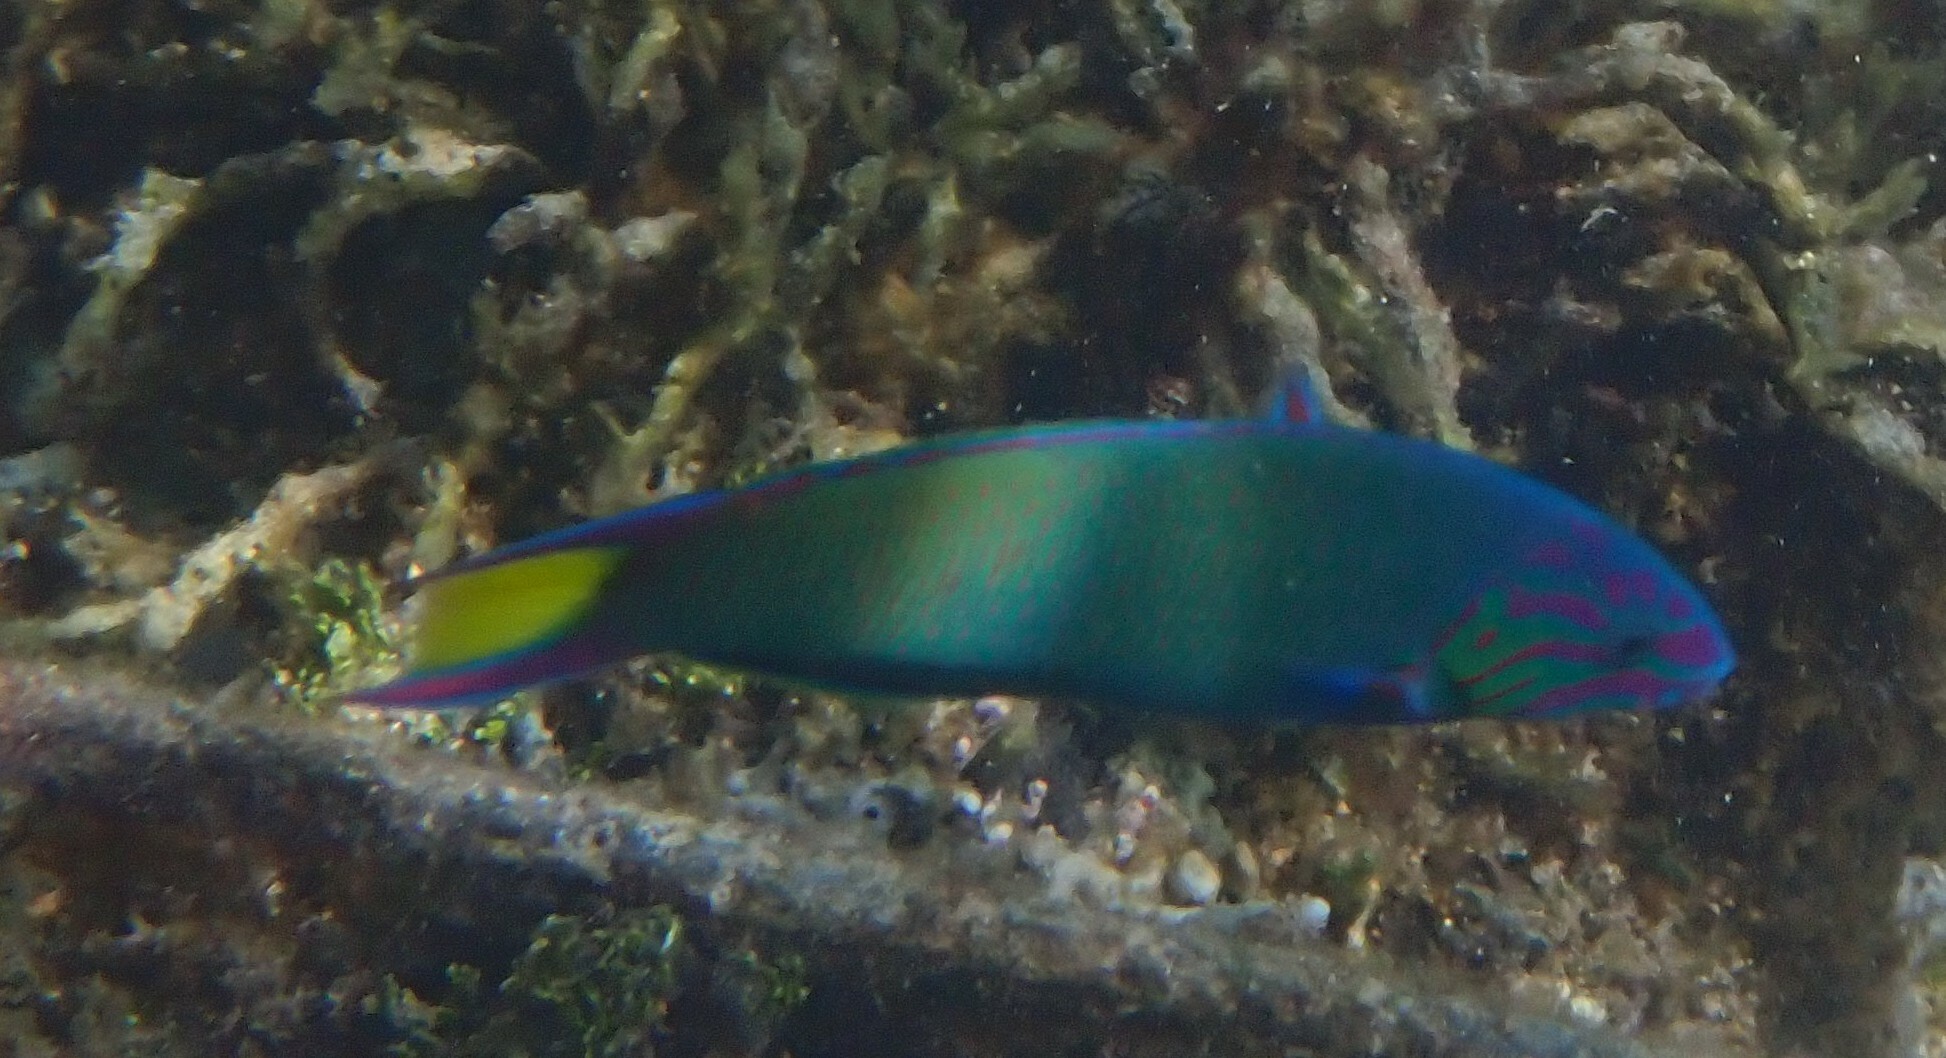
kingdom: Animalia
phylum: Chordata
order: Perciformes
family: Labridae
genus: Thalassoma
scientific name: Thalassoma lunare
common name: Blue wrasse
